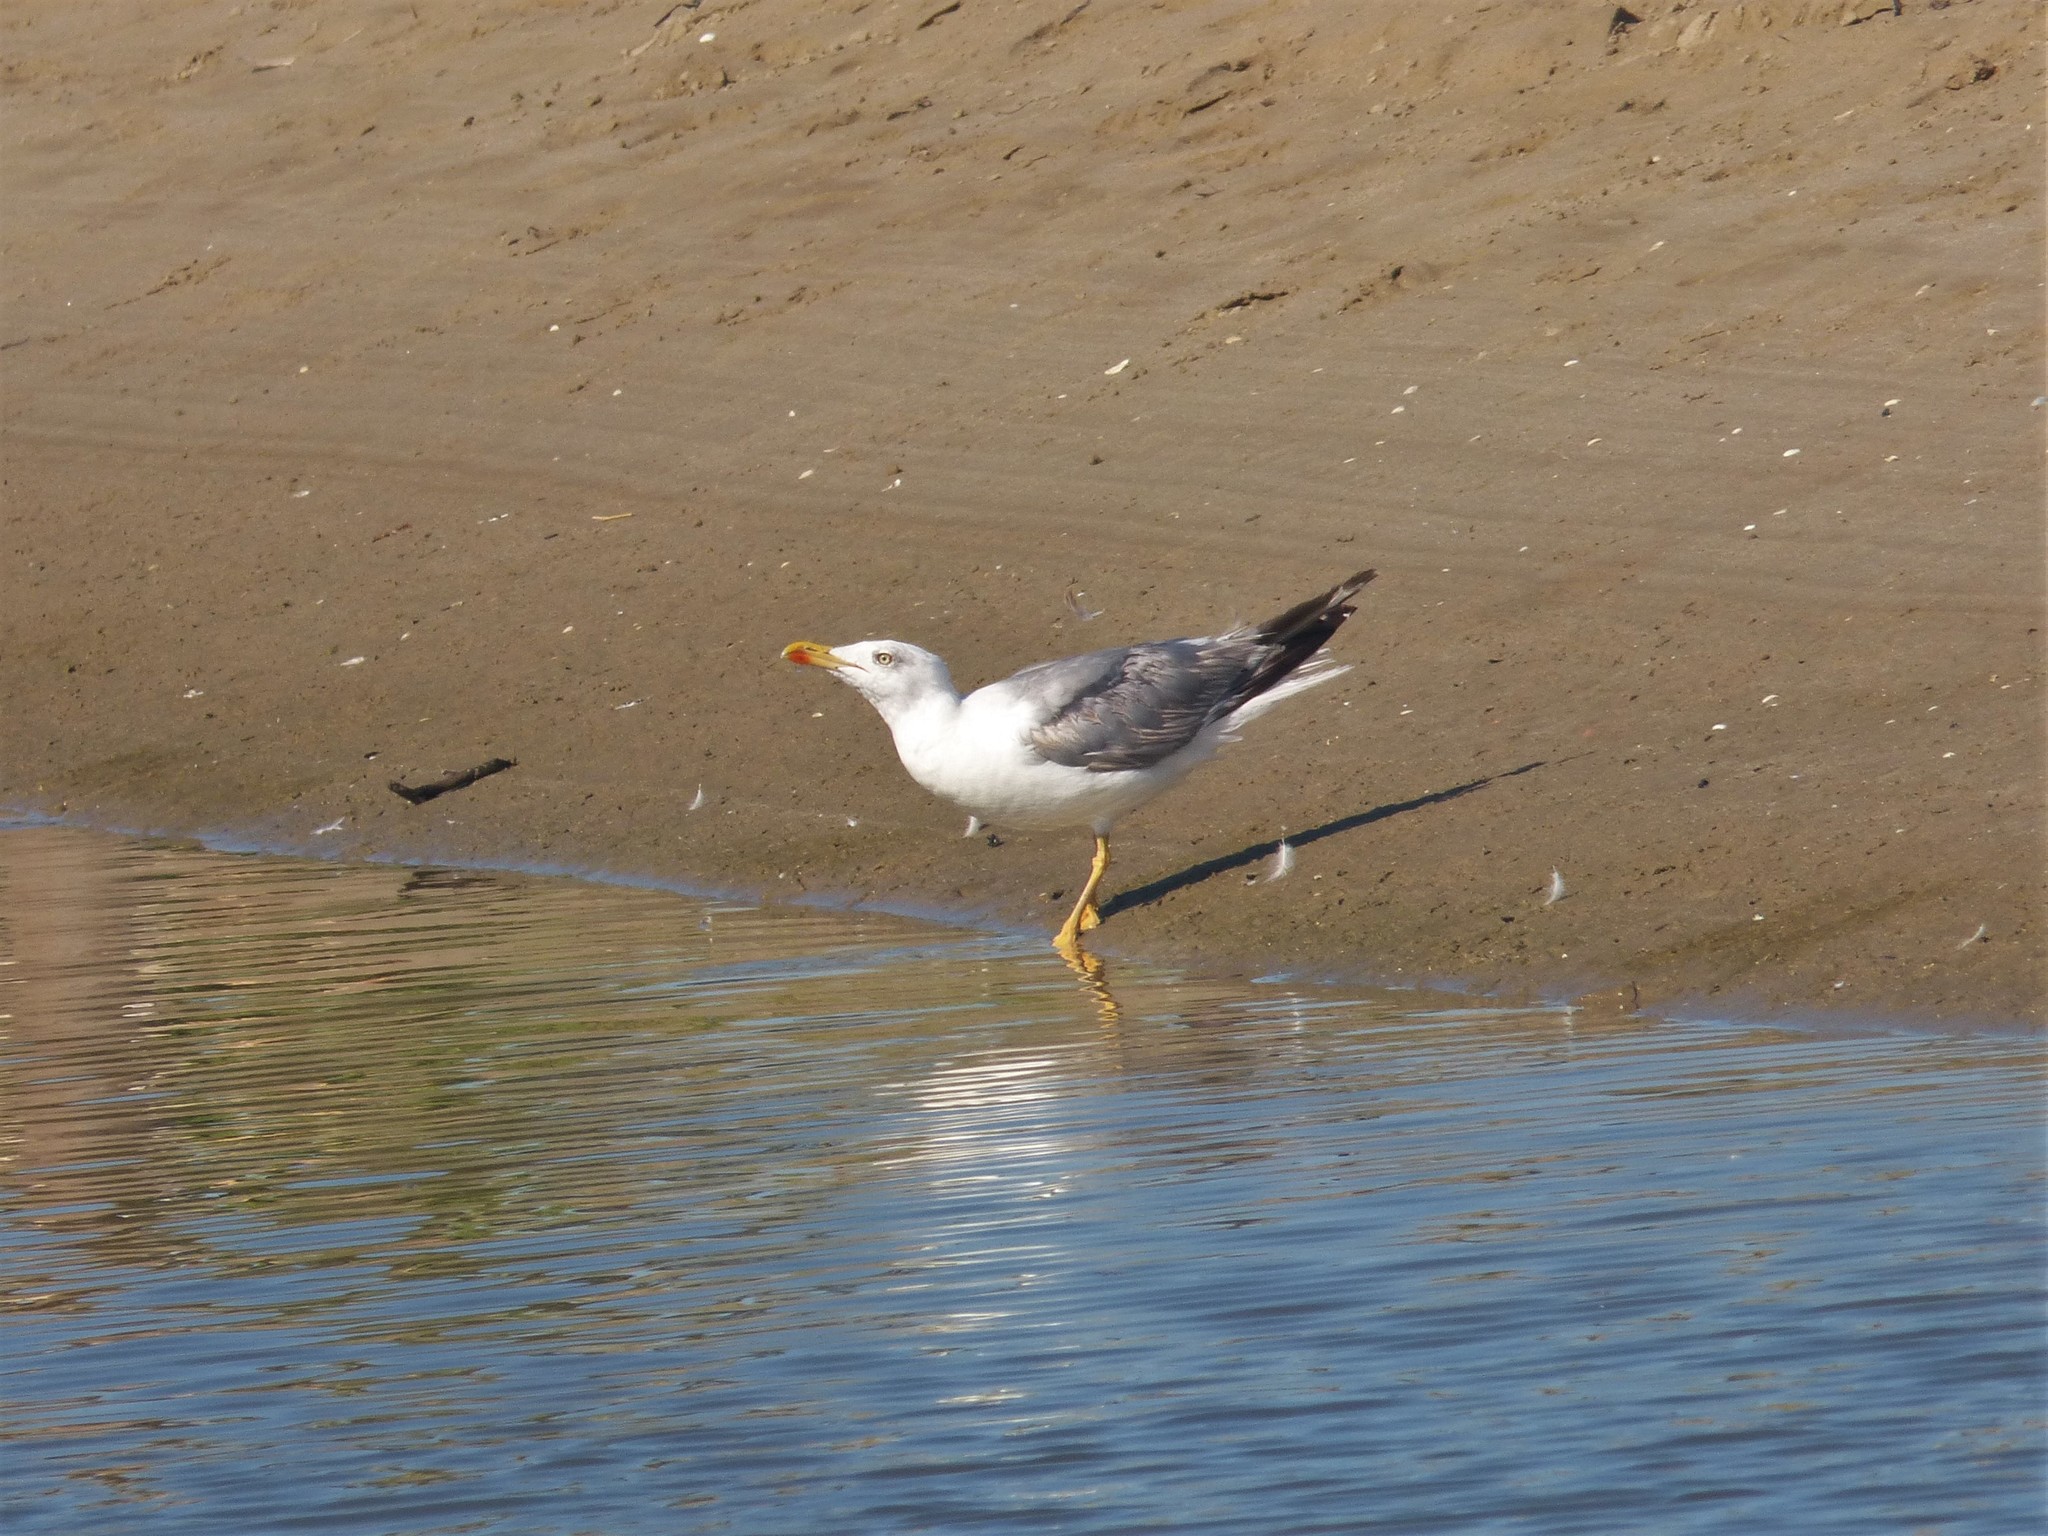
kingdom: Animalia
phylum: Chordata
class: Aves
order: Charadriiformes
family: Laridae
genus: Larus
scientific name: Larus michahellis
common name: Yellow-legged gull
